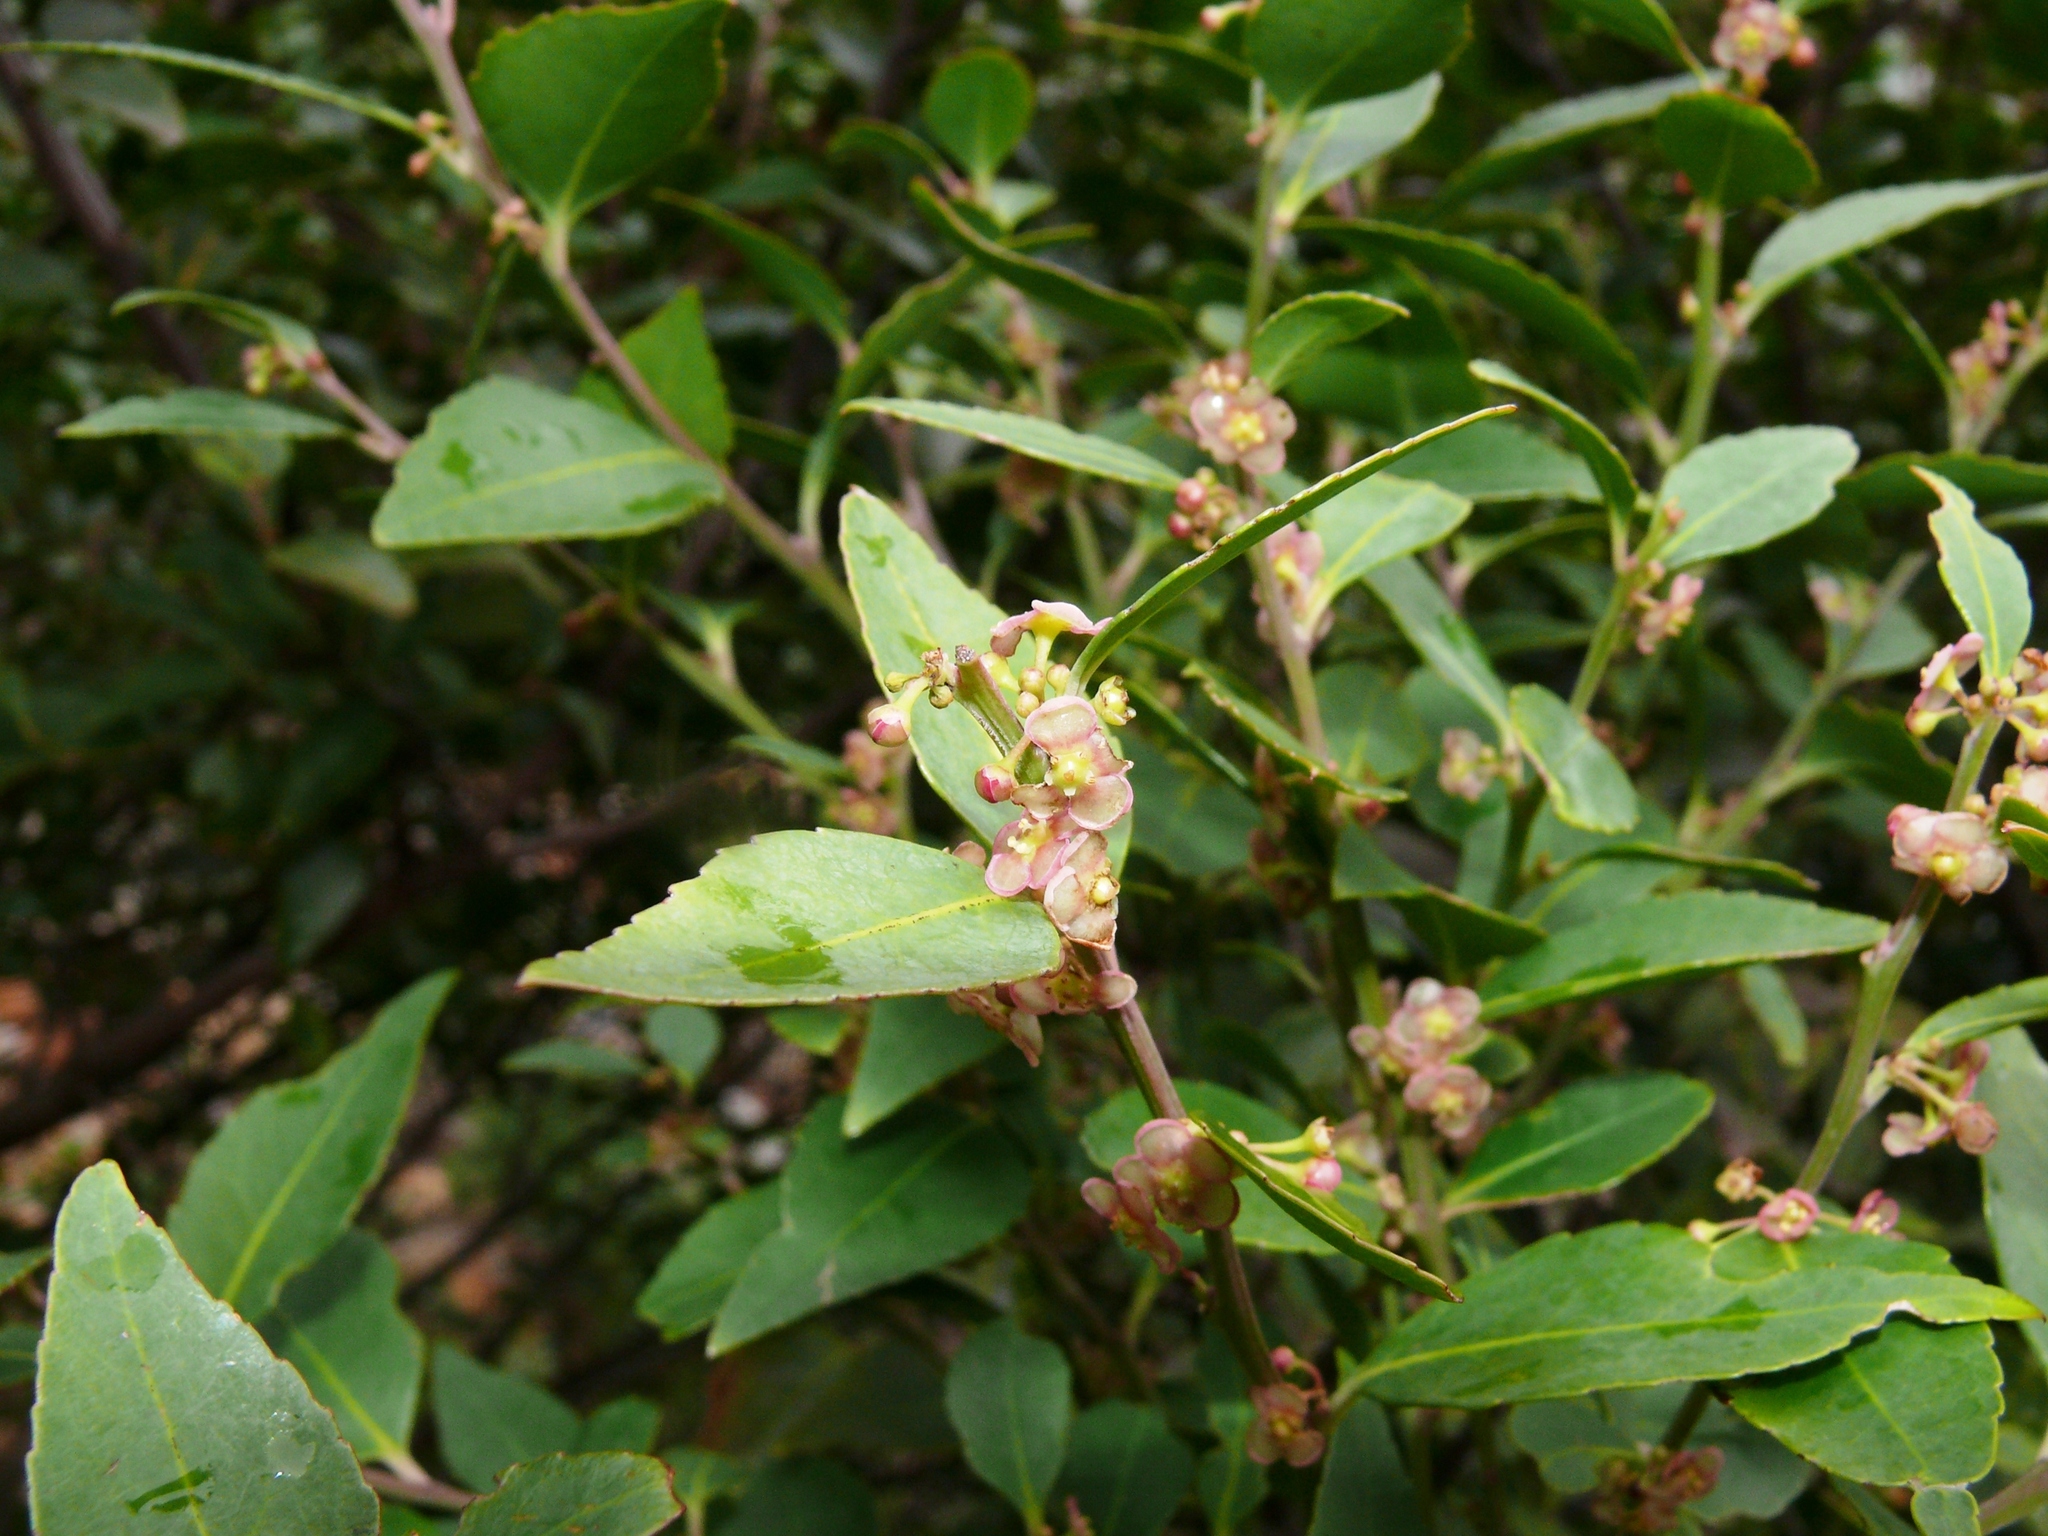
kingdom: Plantae
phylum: Tracheophyta
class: Magnoliopsida
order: Celastrales
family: Celastraceae
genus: Gymnosporia
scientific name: Gymnosporia acuminata
